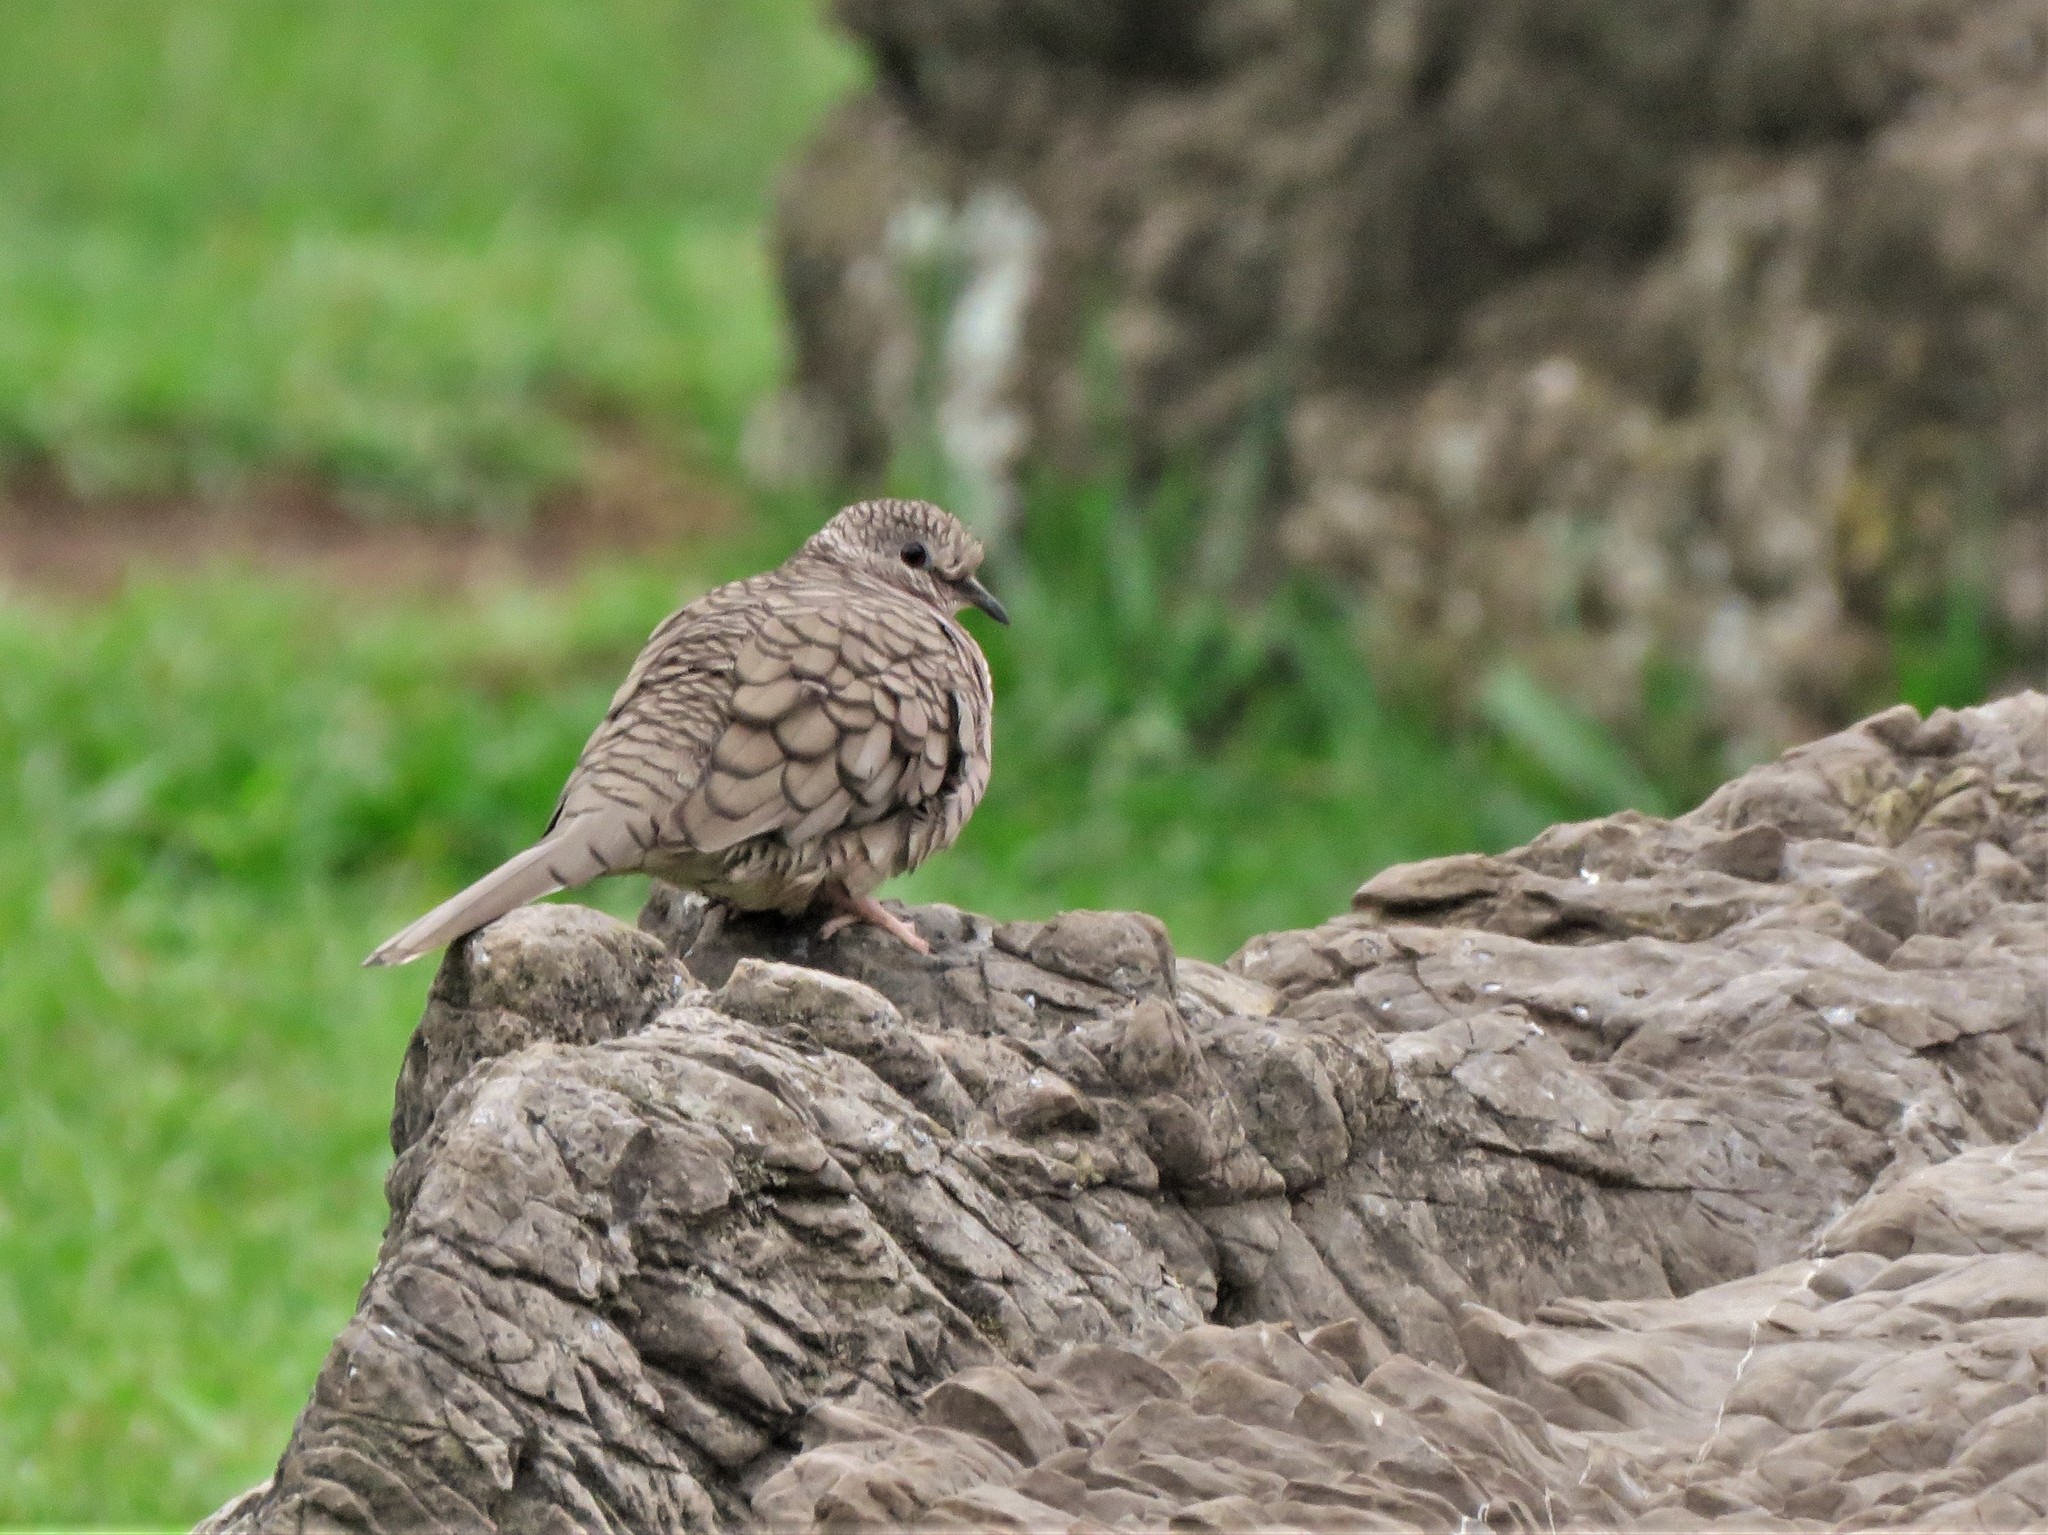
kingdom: Animalia
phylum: Chordata
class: Aves
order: Columbiformes
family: Columbidae
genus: Columbina
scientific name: Columbina inca
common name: Inca dove
